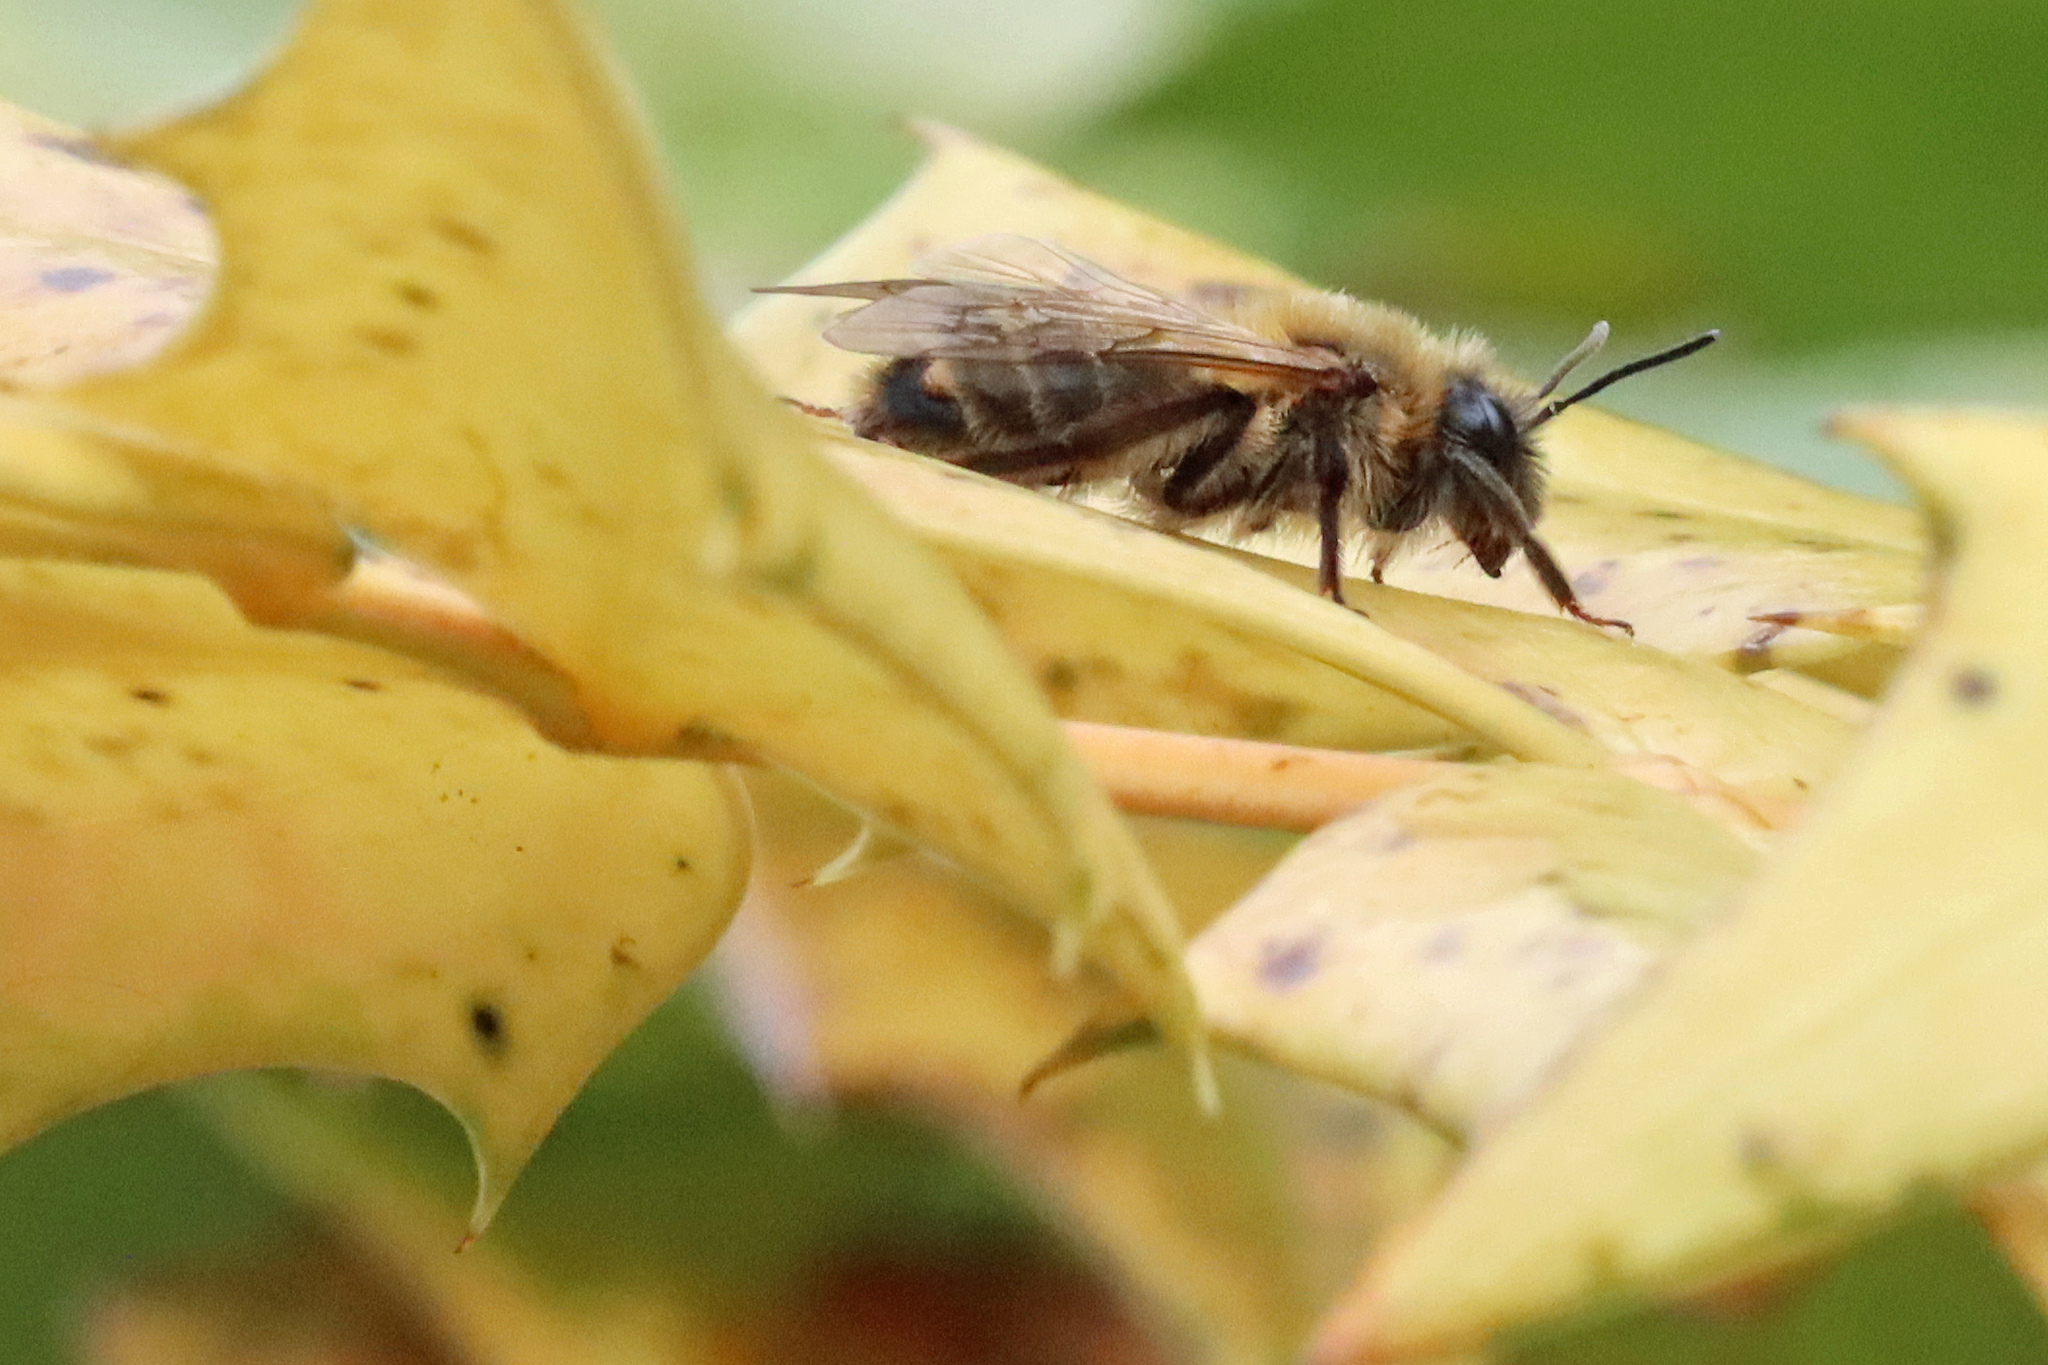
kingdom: Animalia
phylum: Arthropoda
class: Insecta
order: Hymenoptera
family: Andrenidae
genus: Andrena
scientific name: Andrena carantonica
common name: Chocolate mining bee
